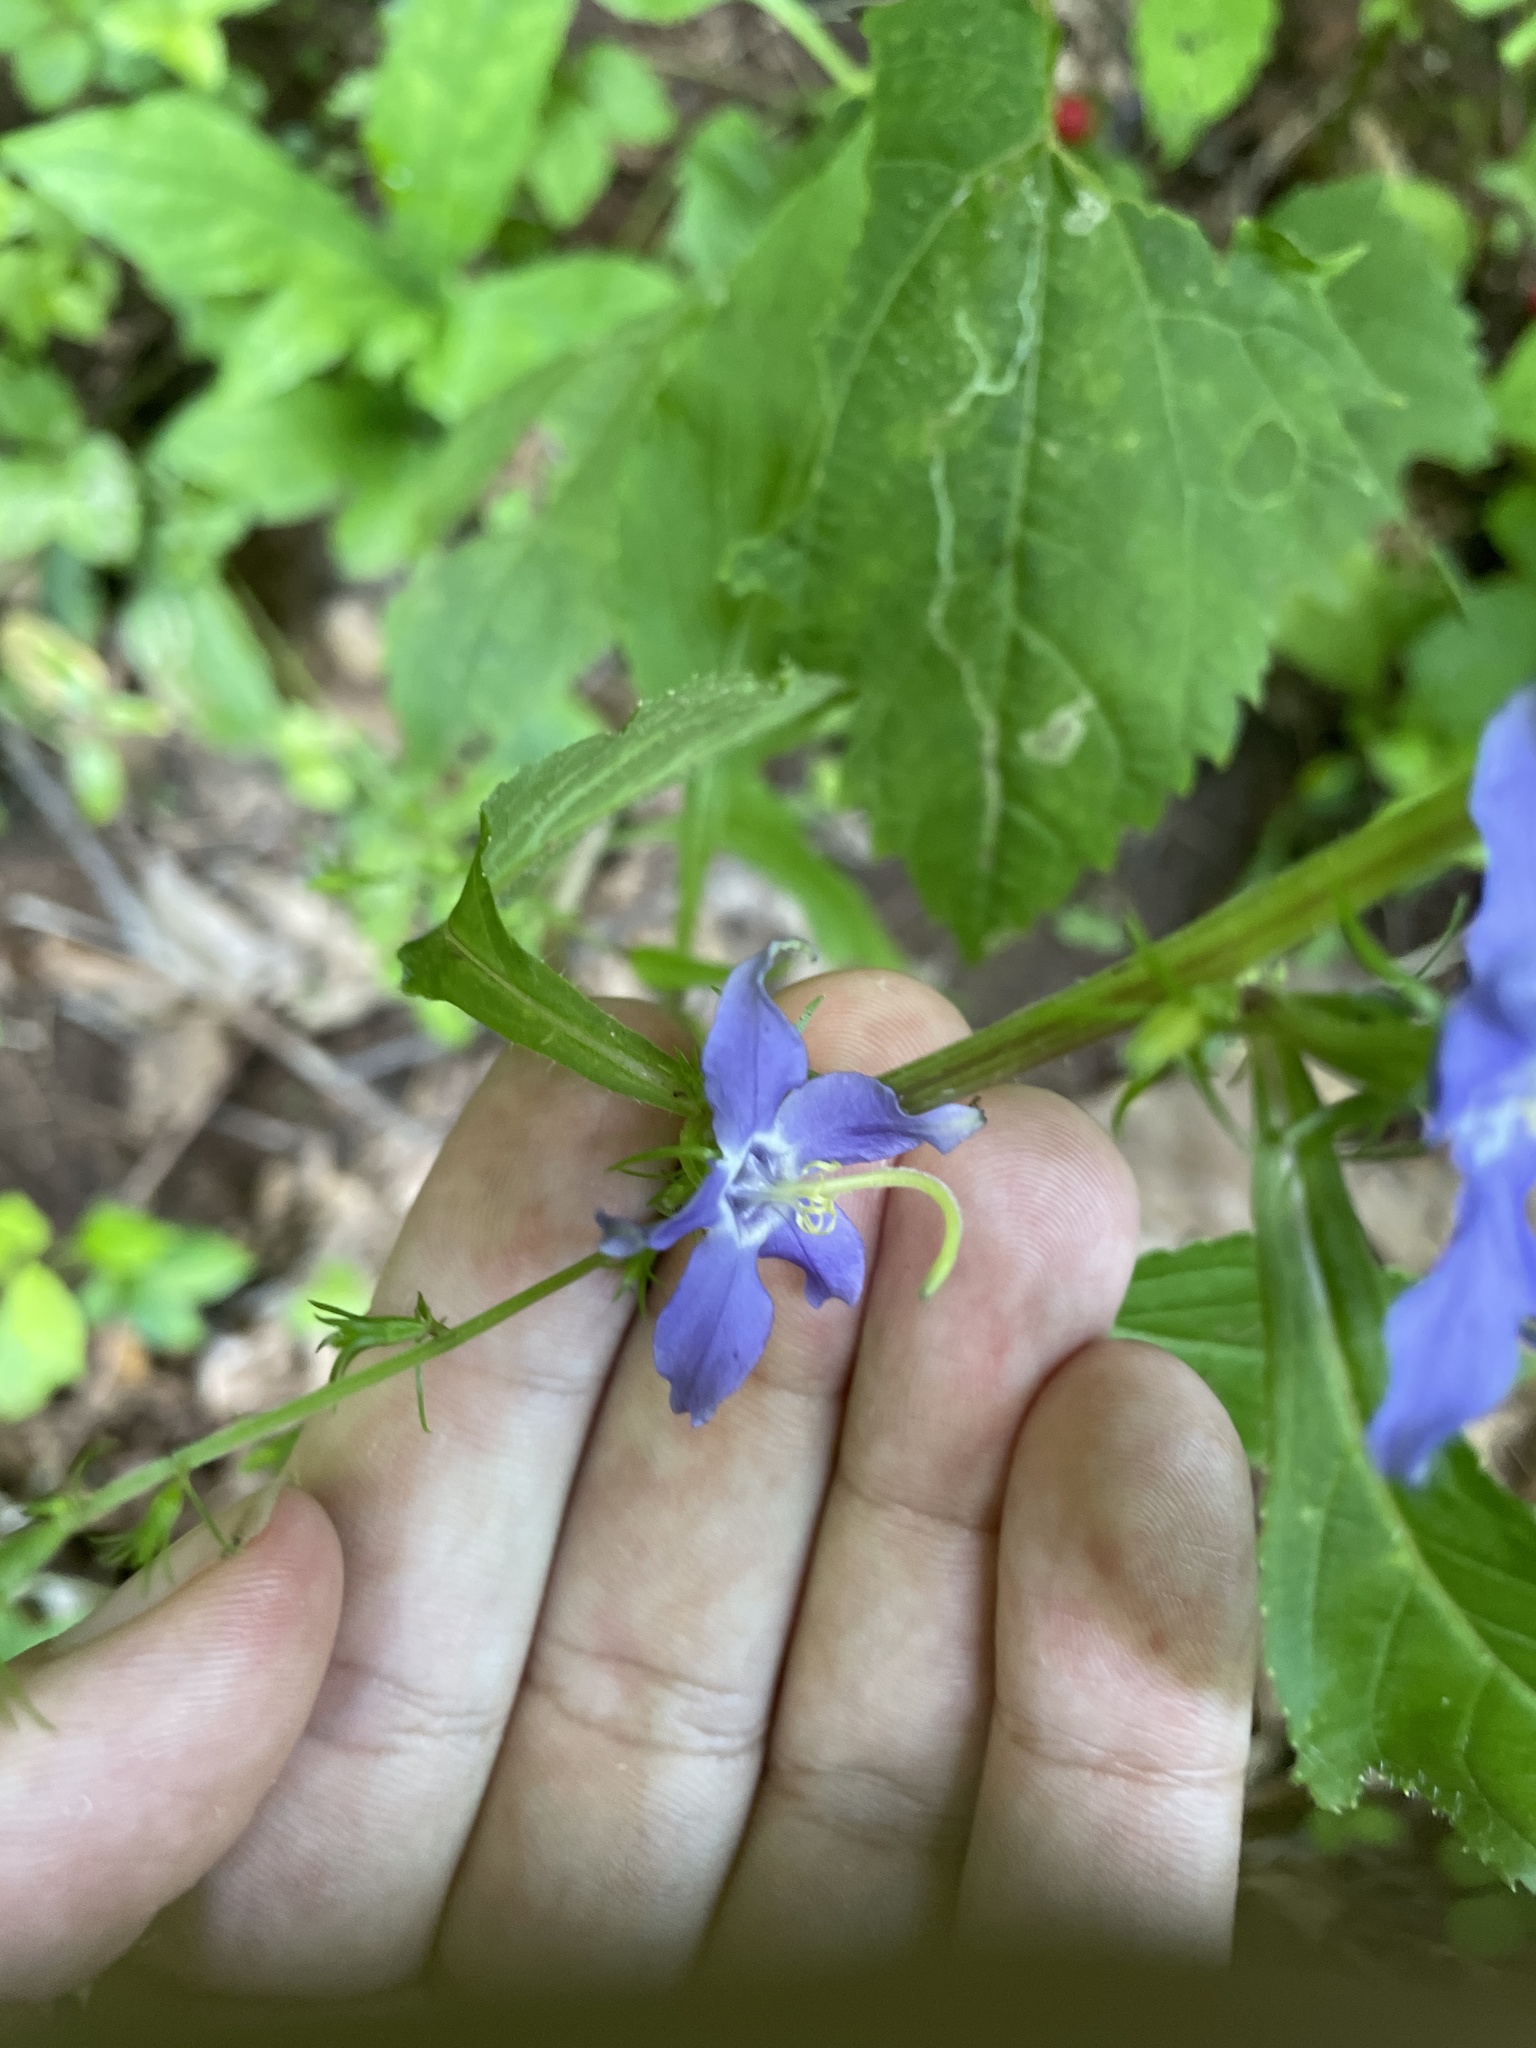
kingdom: Plantae
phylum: Tracheophyta
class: Magnoliopsida
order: Asterales
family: Campanulaceae
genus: Campanulastrum
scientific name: Campanulastrum americanum
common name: American bellflower
